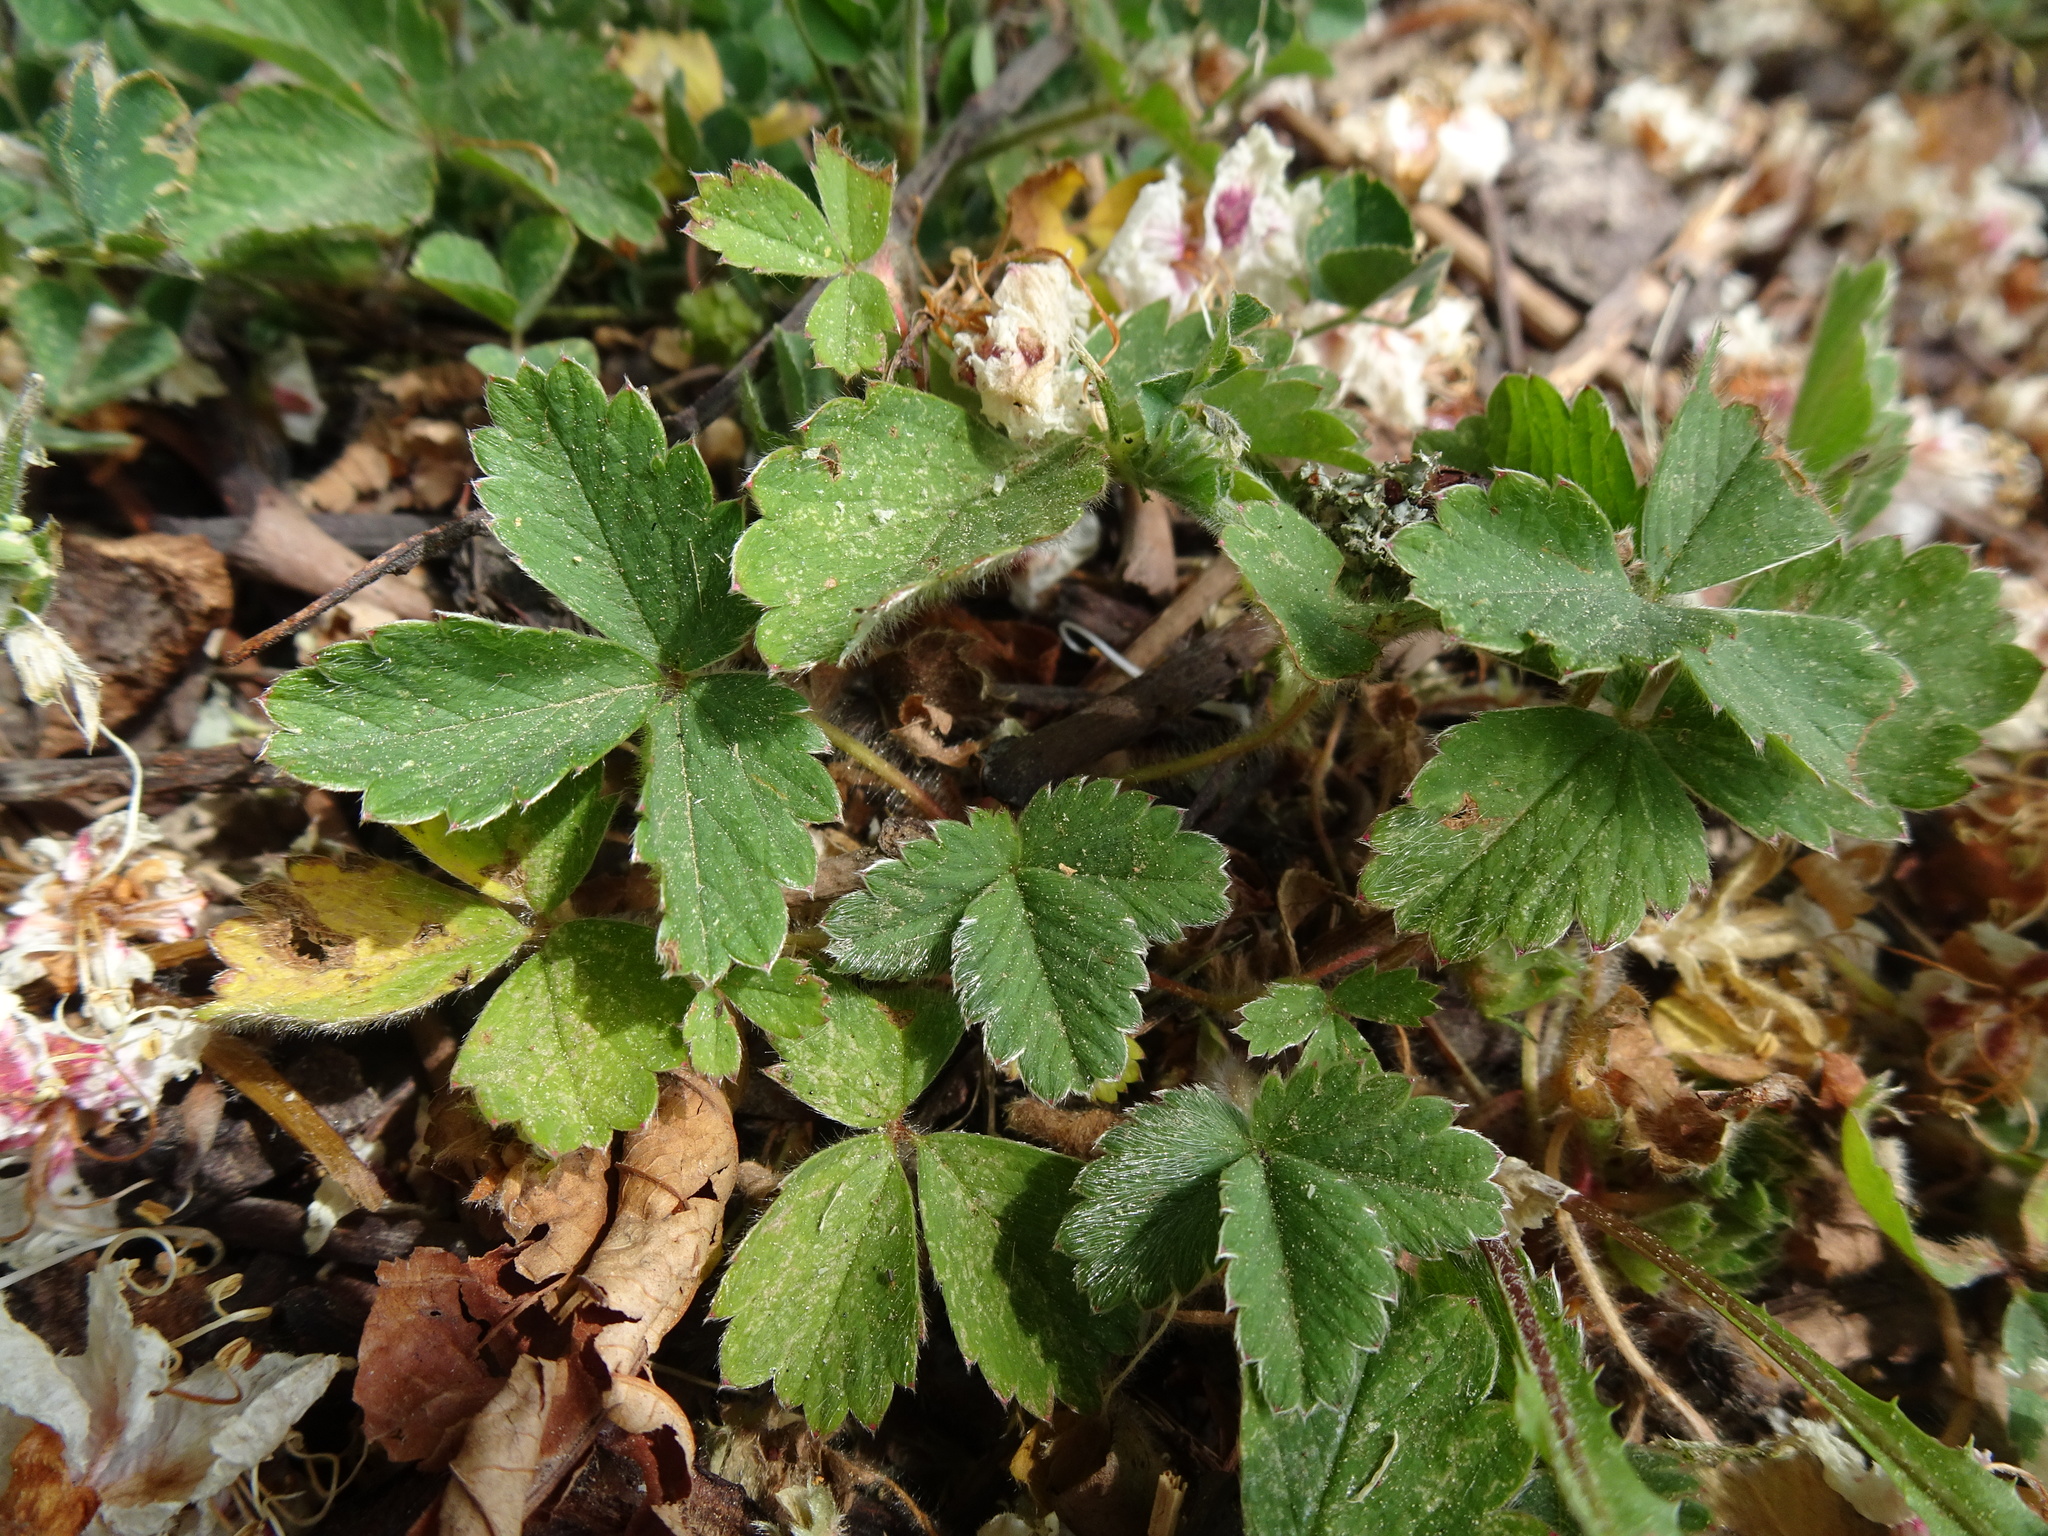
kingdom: Plantae
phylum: Tracheophyta
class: Magnoliopsida
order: Rosales
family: Rosaceae
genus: Potentilla
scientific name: Potentilla sterilis
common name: Barren strawberry
